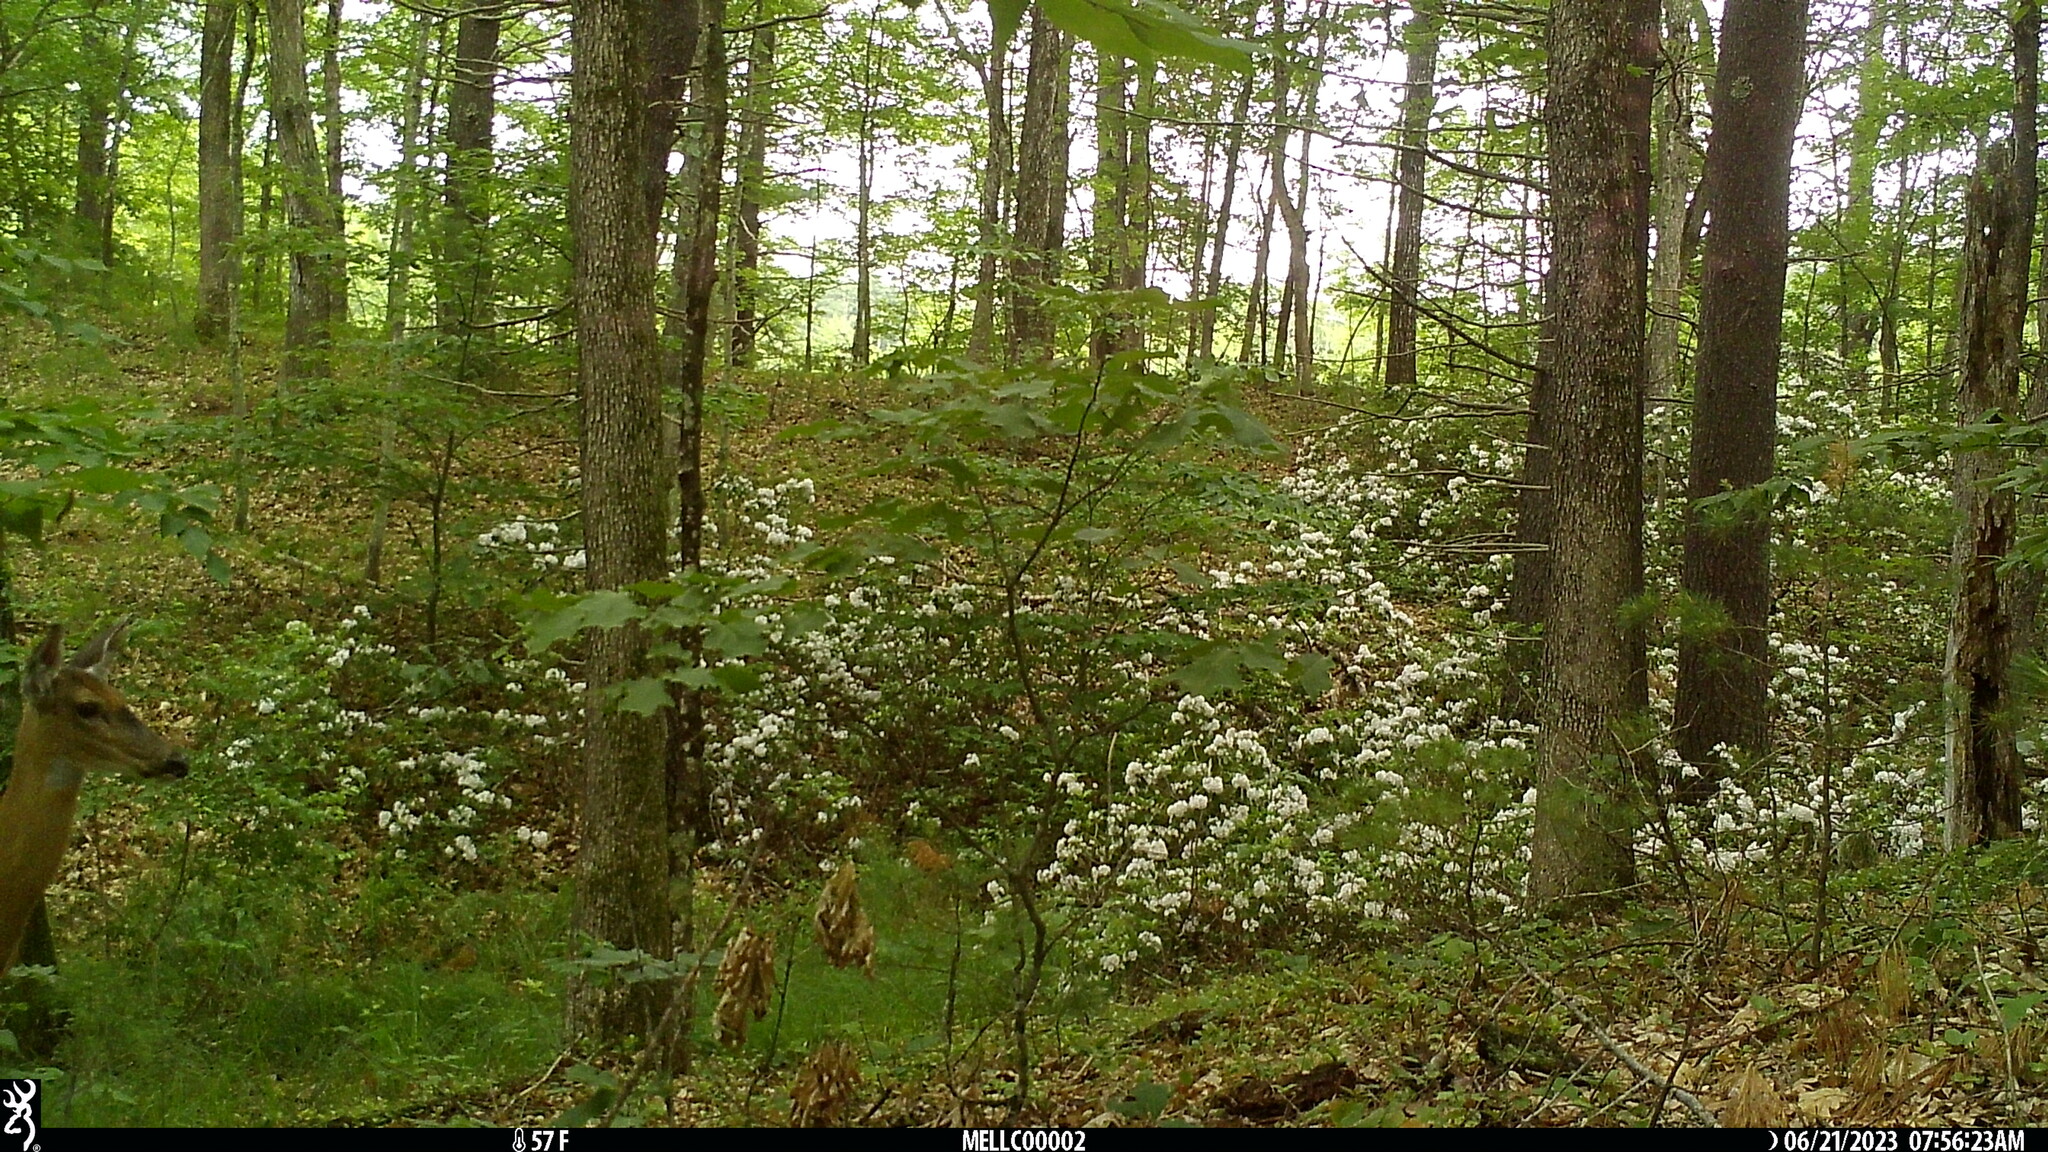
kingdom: Animalia
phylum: Chordata
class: Mammalia
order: Artiodactyla
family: Cervidae
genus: Odocoileus
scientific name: Odocoileus virginianus
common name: White-tailed deer
